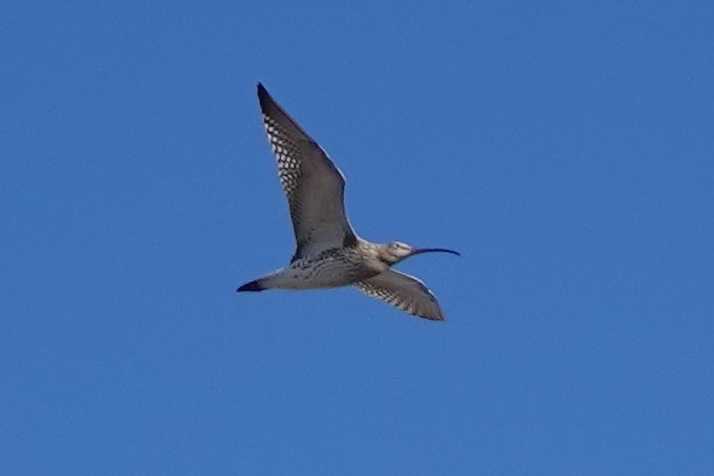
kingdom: Animalia
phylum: Chordata
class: Aves
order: Charadriiformes
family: Scolopacidae
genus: Numenius
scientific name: Numenius arquata
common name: Eurasian curlew
